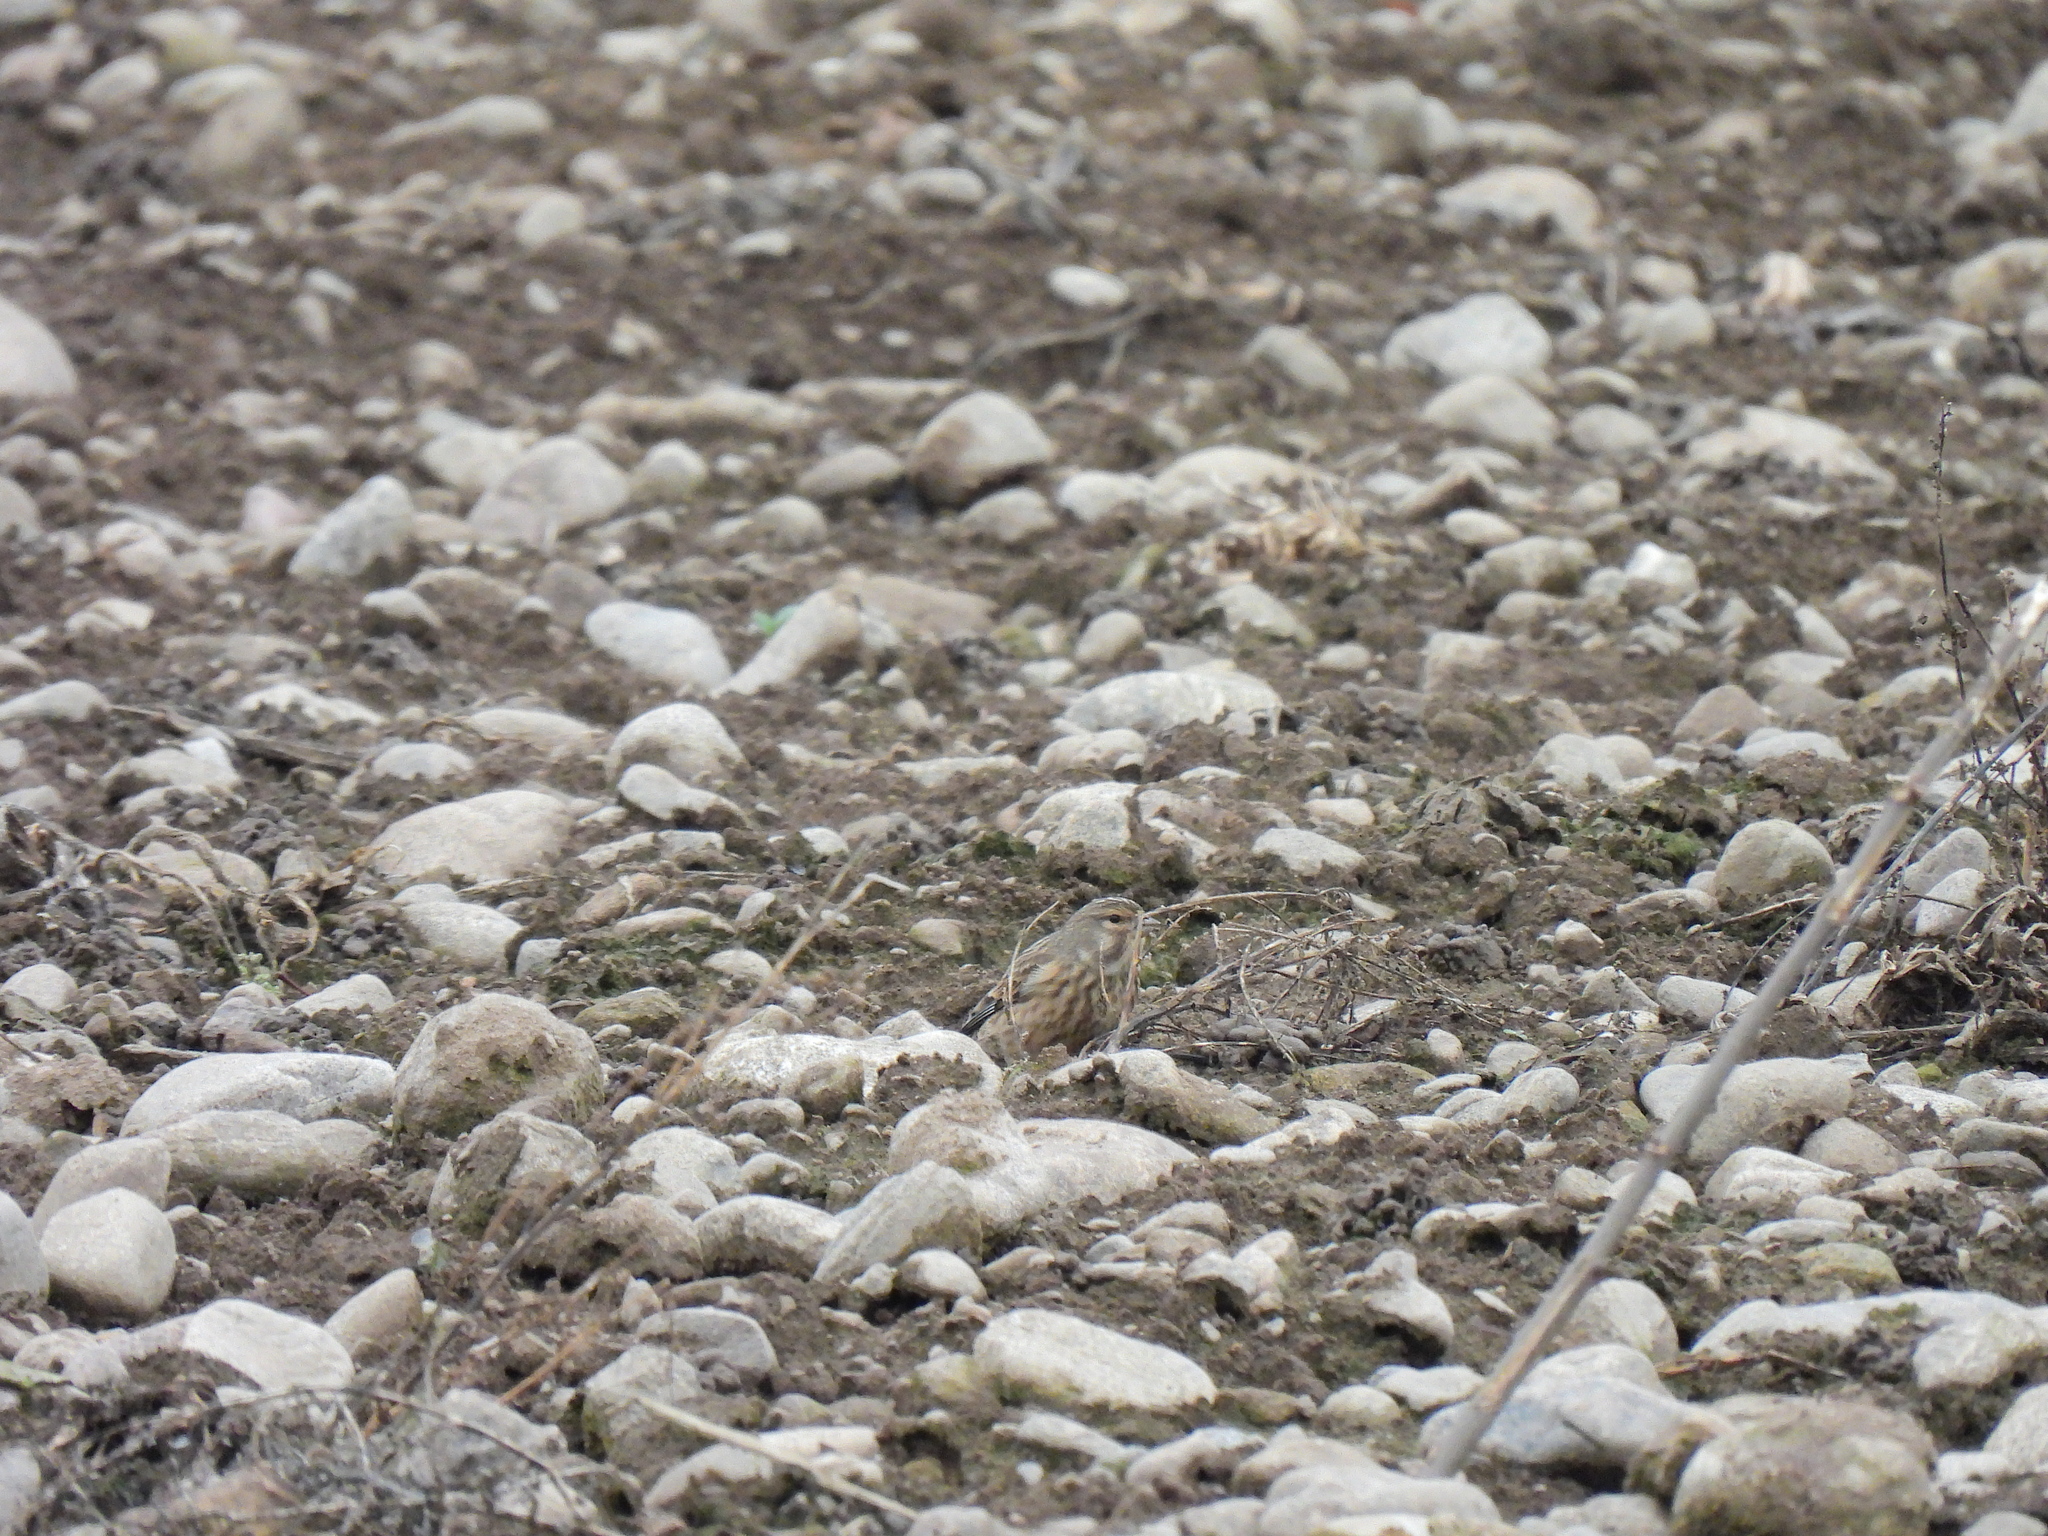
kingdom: Animalia
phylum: Chordata
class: Aves
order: Passeriformes
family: Fringillidae
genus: Linaria
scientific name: Linaria cannabina
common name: Common linnet
